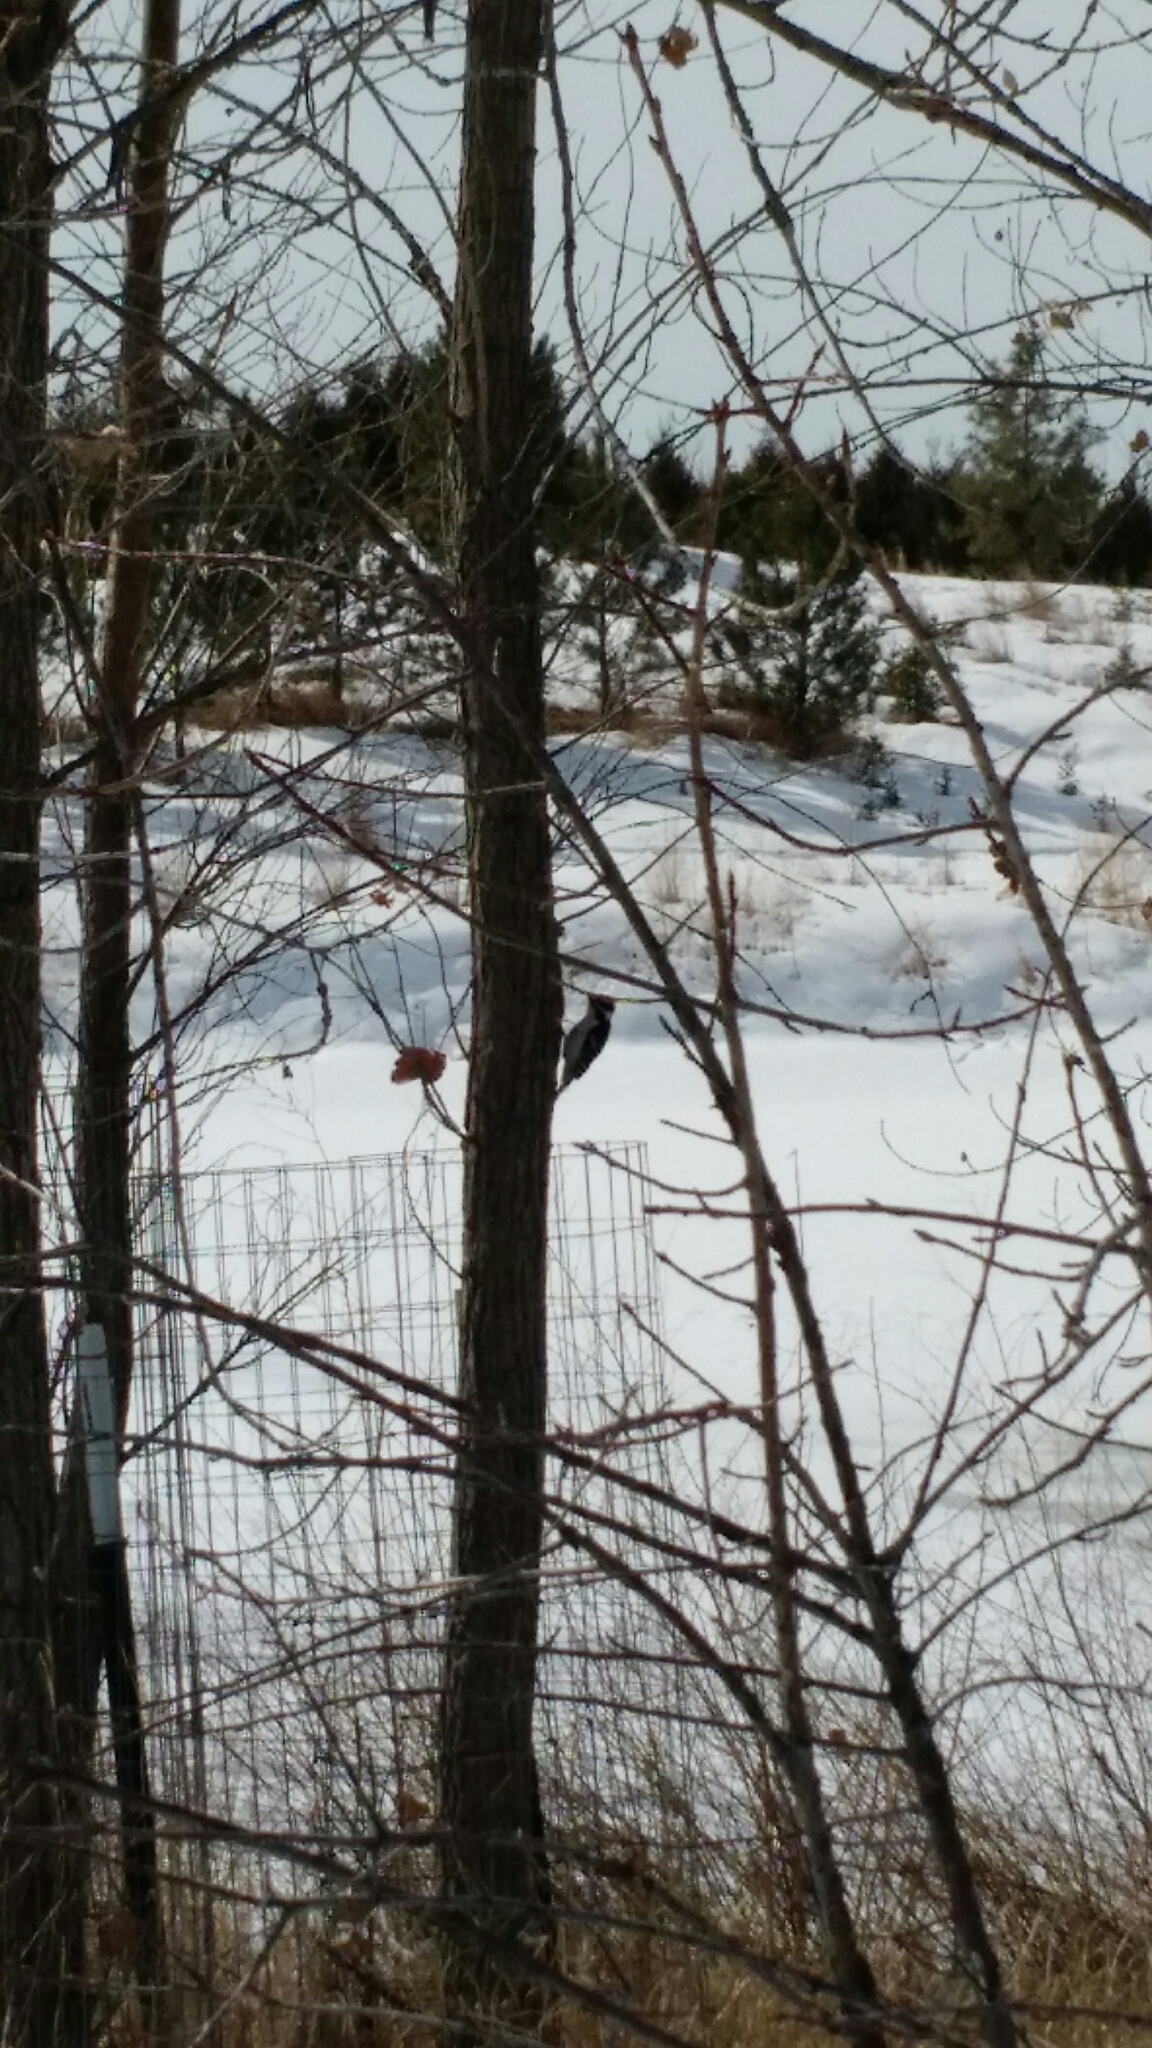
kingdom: Animalia
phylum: Chordata
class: Aves
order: Piciformes
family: Picidae
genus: Dryobates
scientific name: Dryobates pubescens
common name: Downy woodpecker
